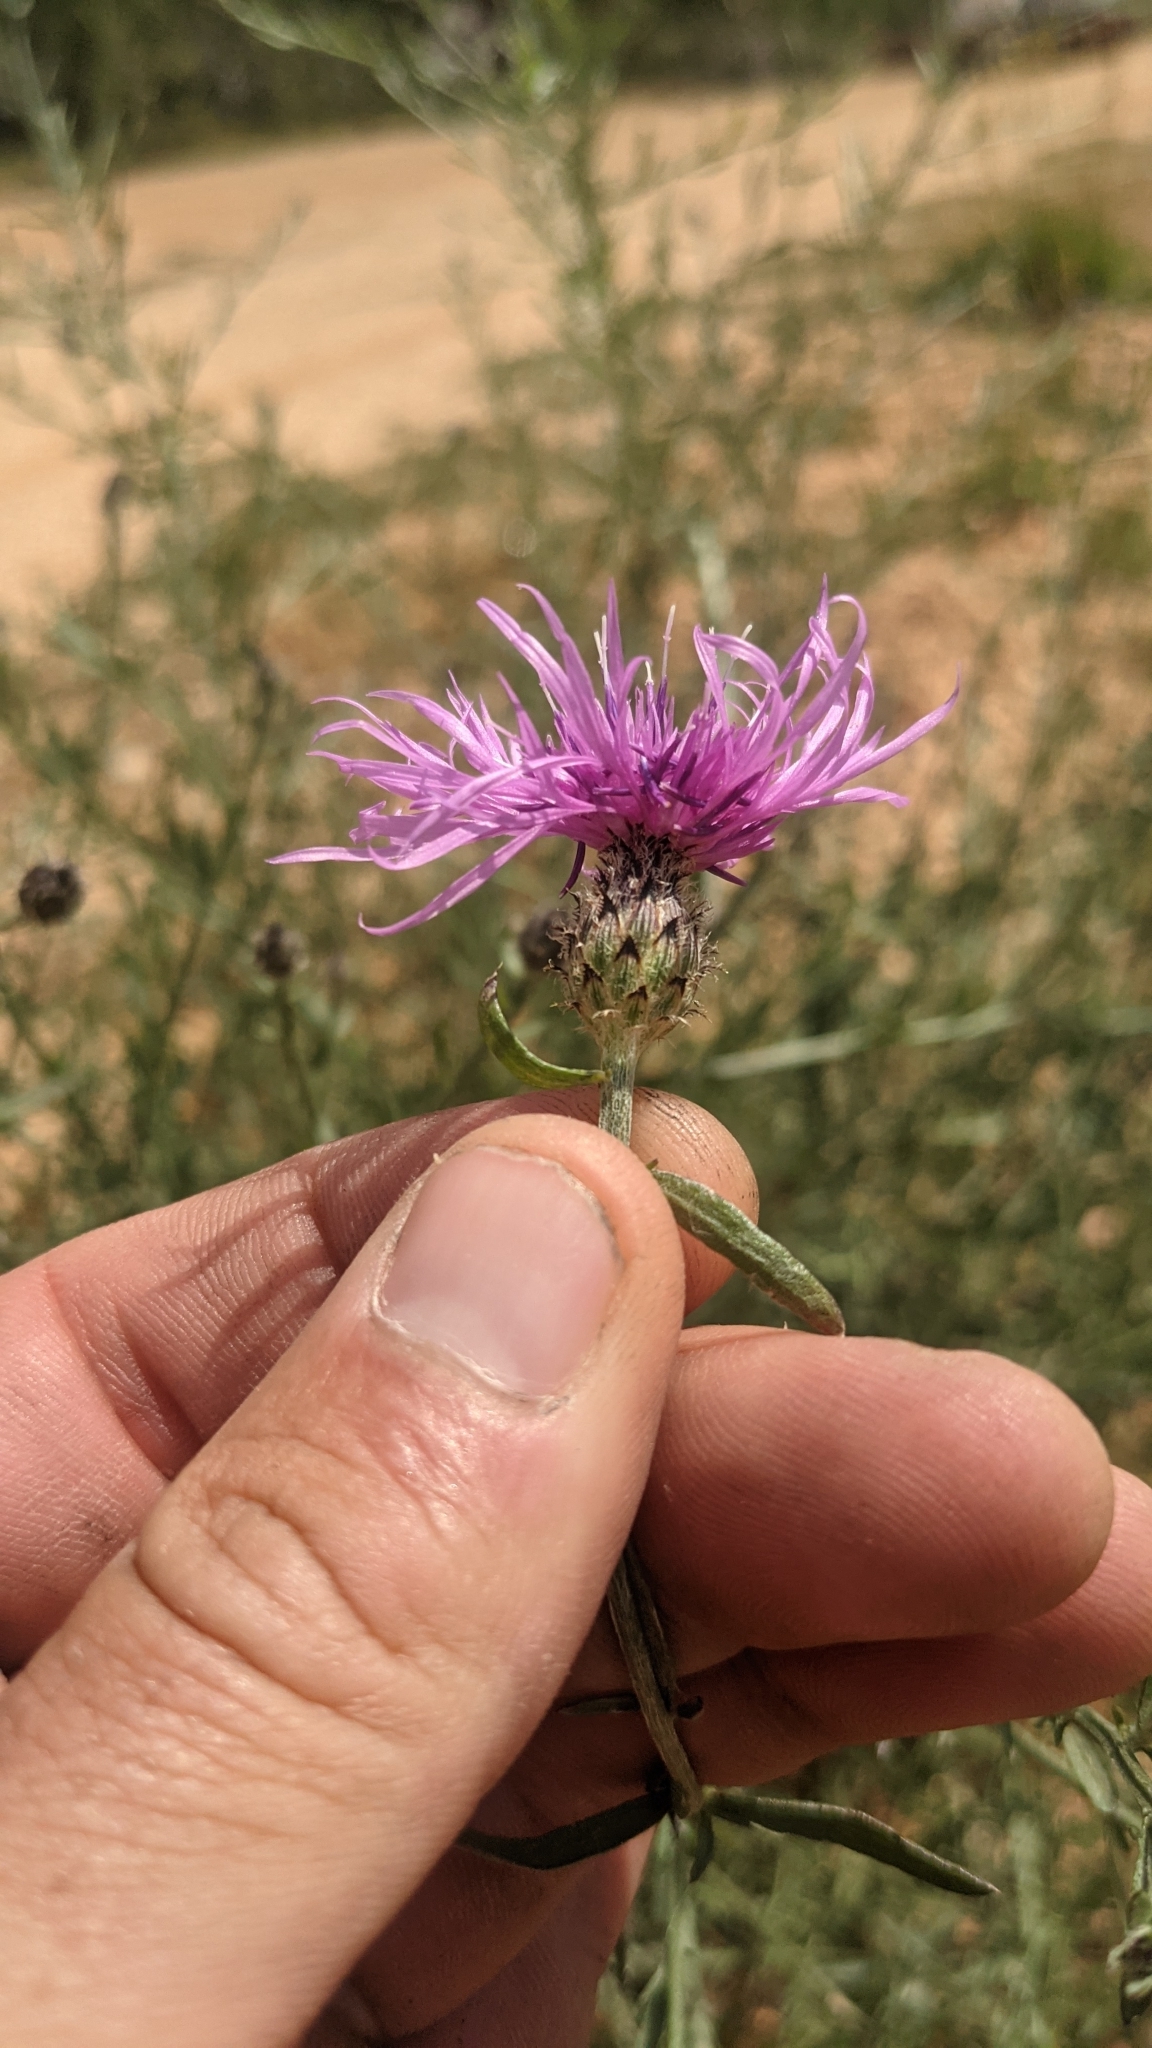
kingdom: Plantae
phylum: Tracheophyta
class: Magnoliopsida
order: Asterales
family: Asteraceae
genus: Centaurea
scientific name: Centaurea stoebe
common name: Spotted knapweed
